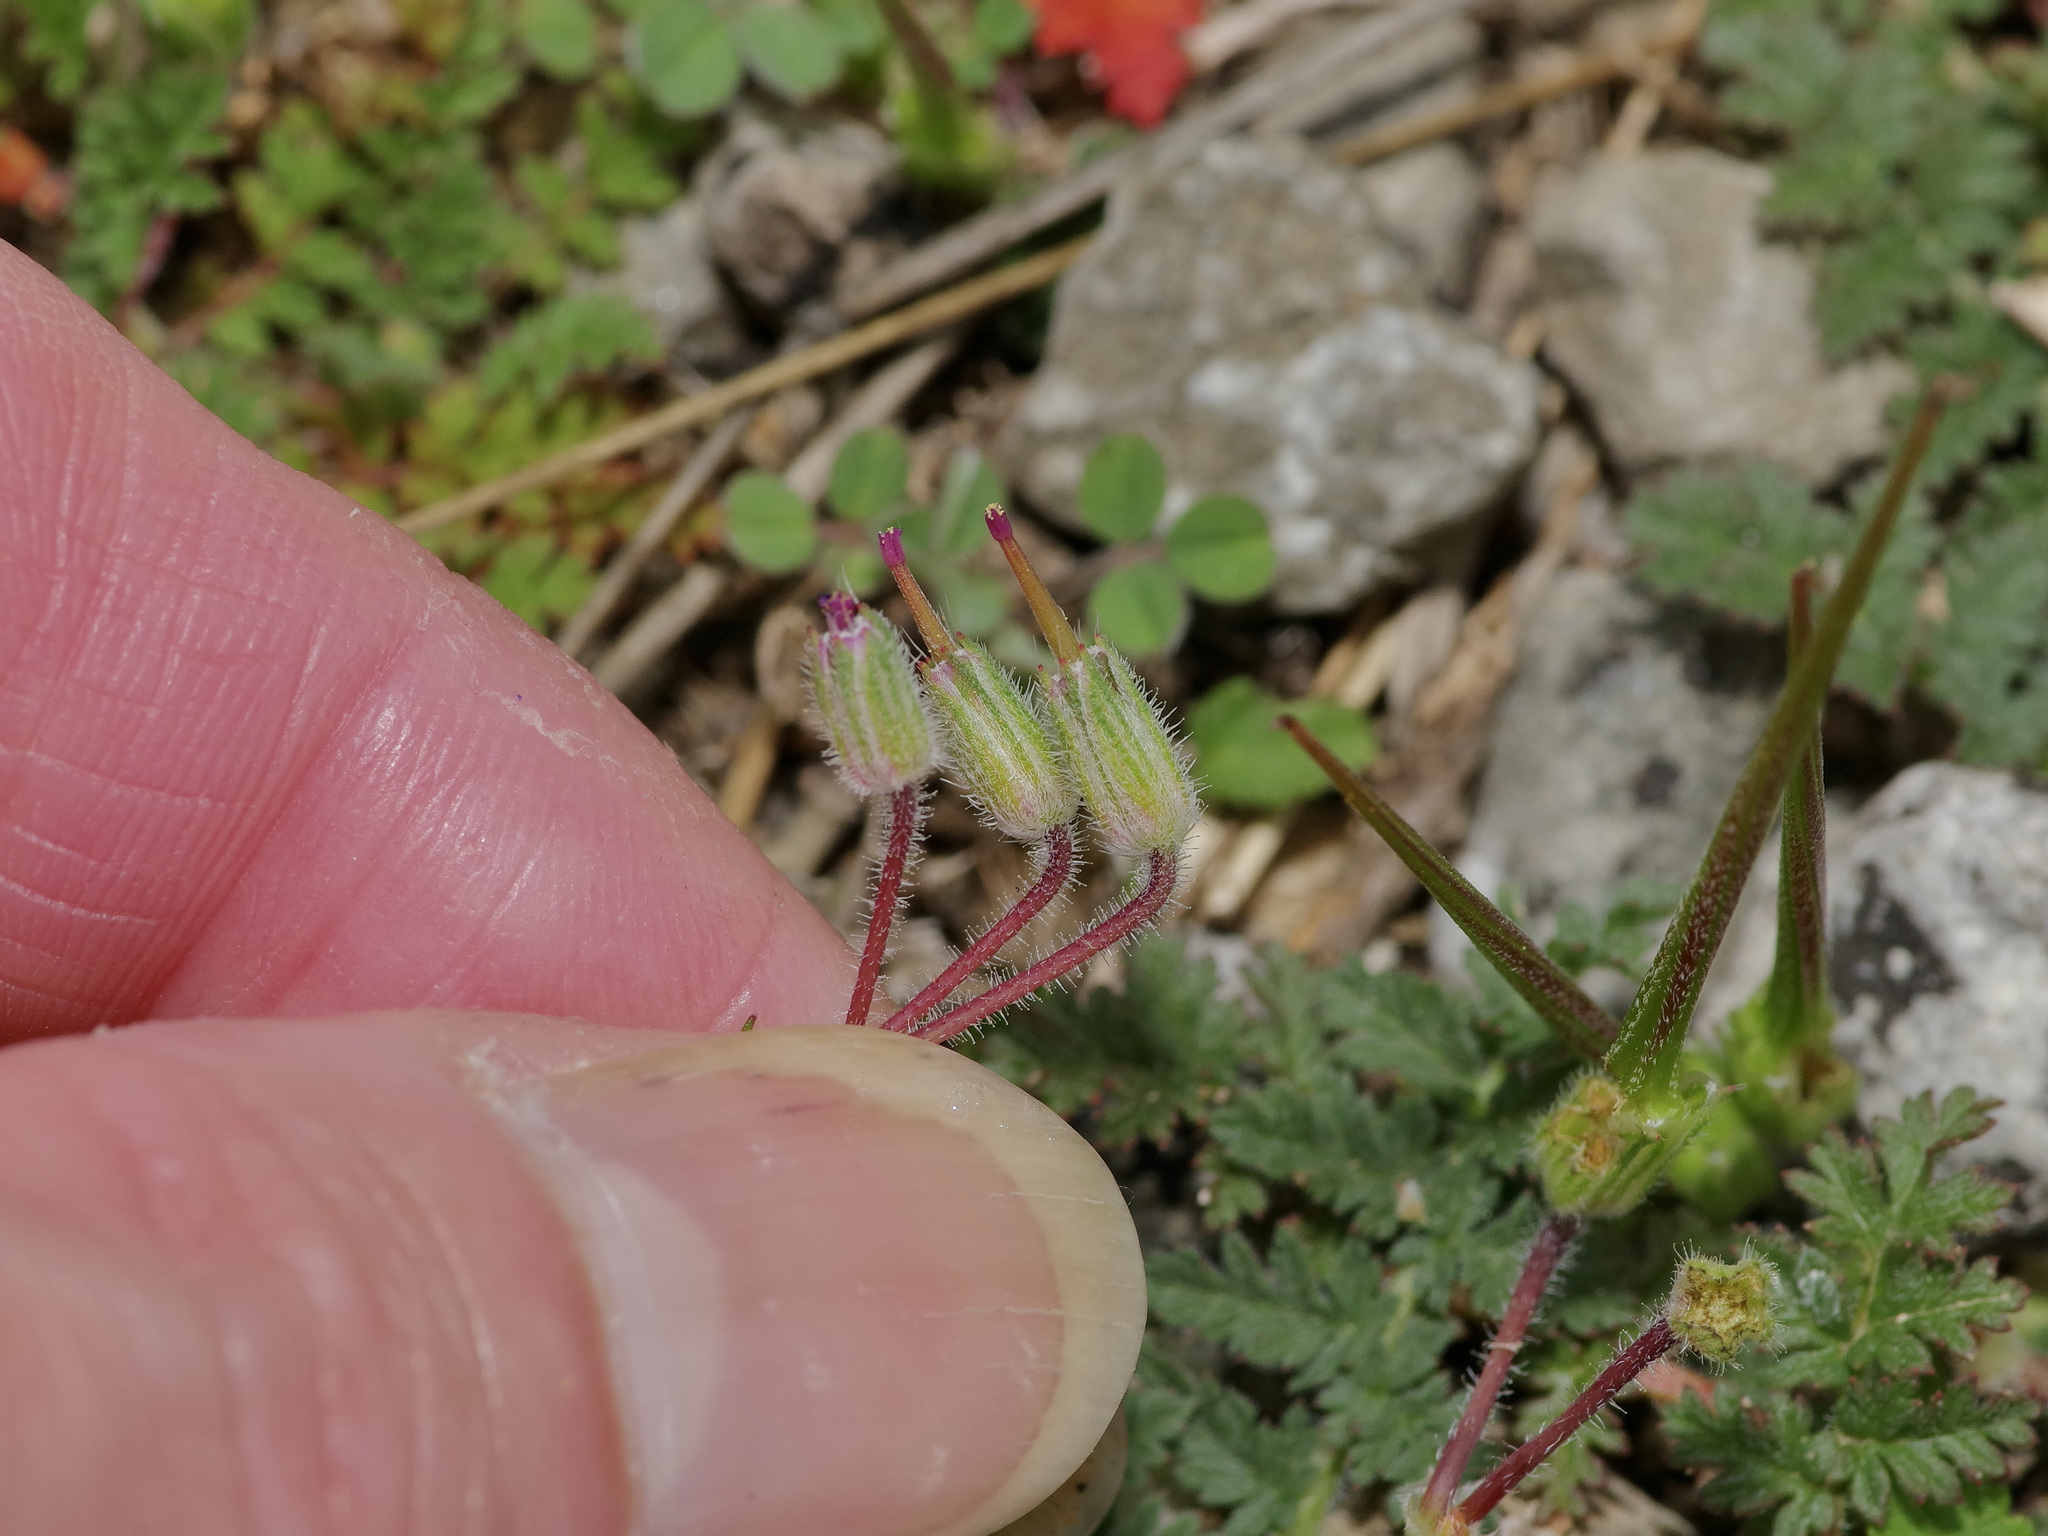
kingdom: Plantae
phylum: Tracheophyta
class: Magnoliopsida
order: Geraniales
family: Geraniaceae
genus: Erodium
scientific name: Erodium cicutarium
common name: Common stork's-bill
